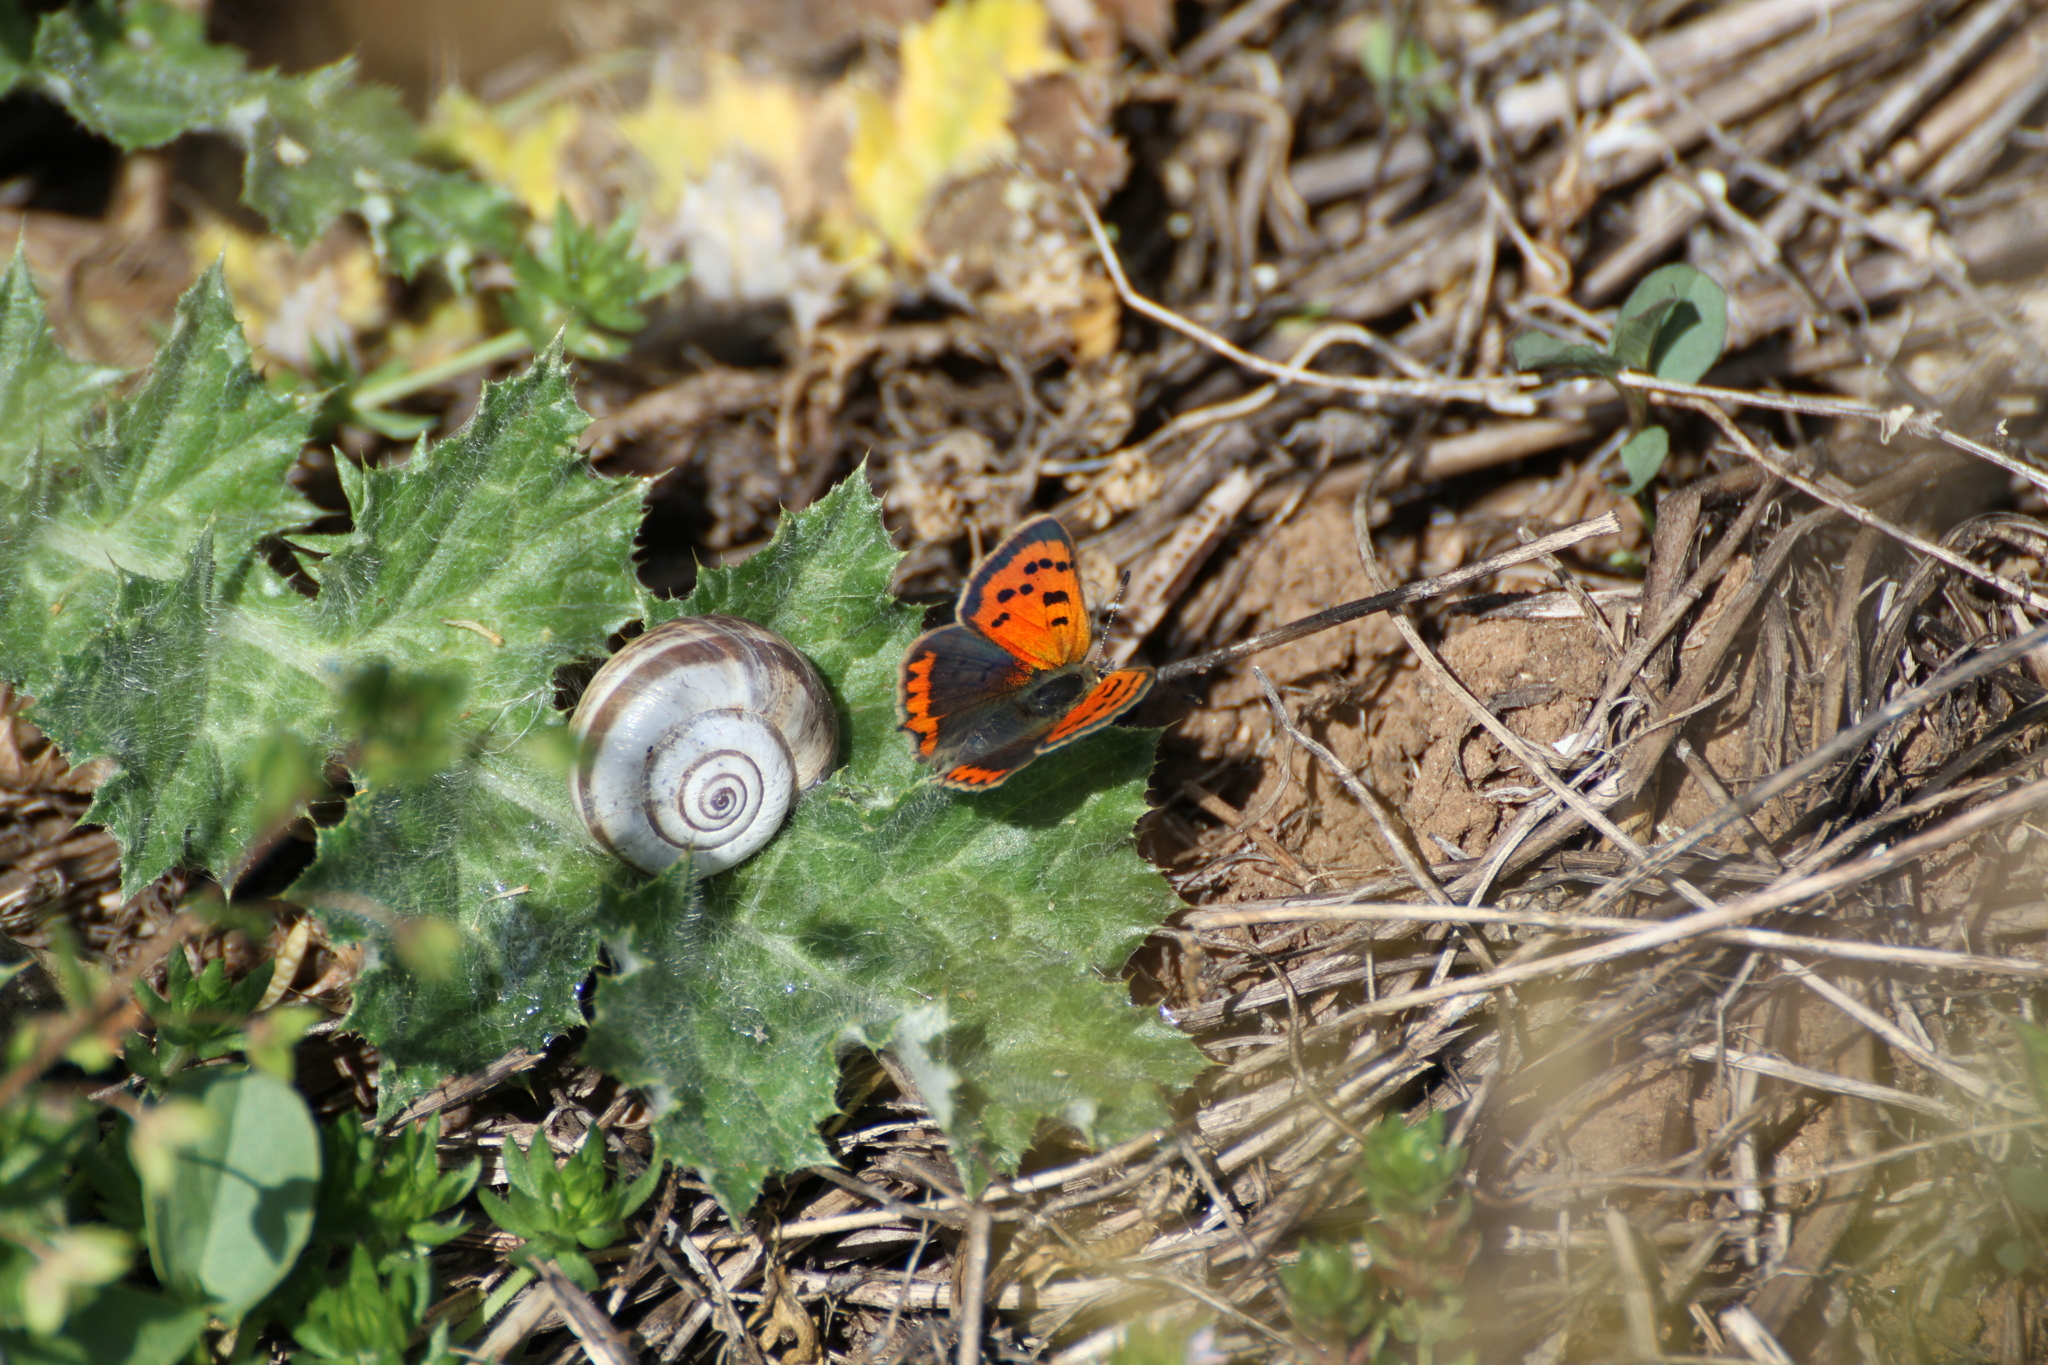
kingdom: Animalia
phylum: Arthropoda
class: Insecta
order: Lepidoptera
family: Lycaenidae
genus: Lycaena
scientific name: Lycaena phlaeas
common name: Small copper
